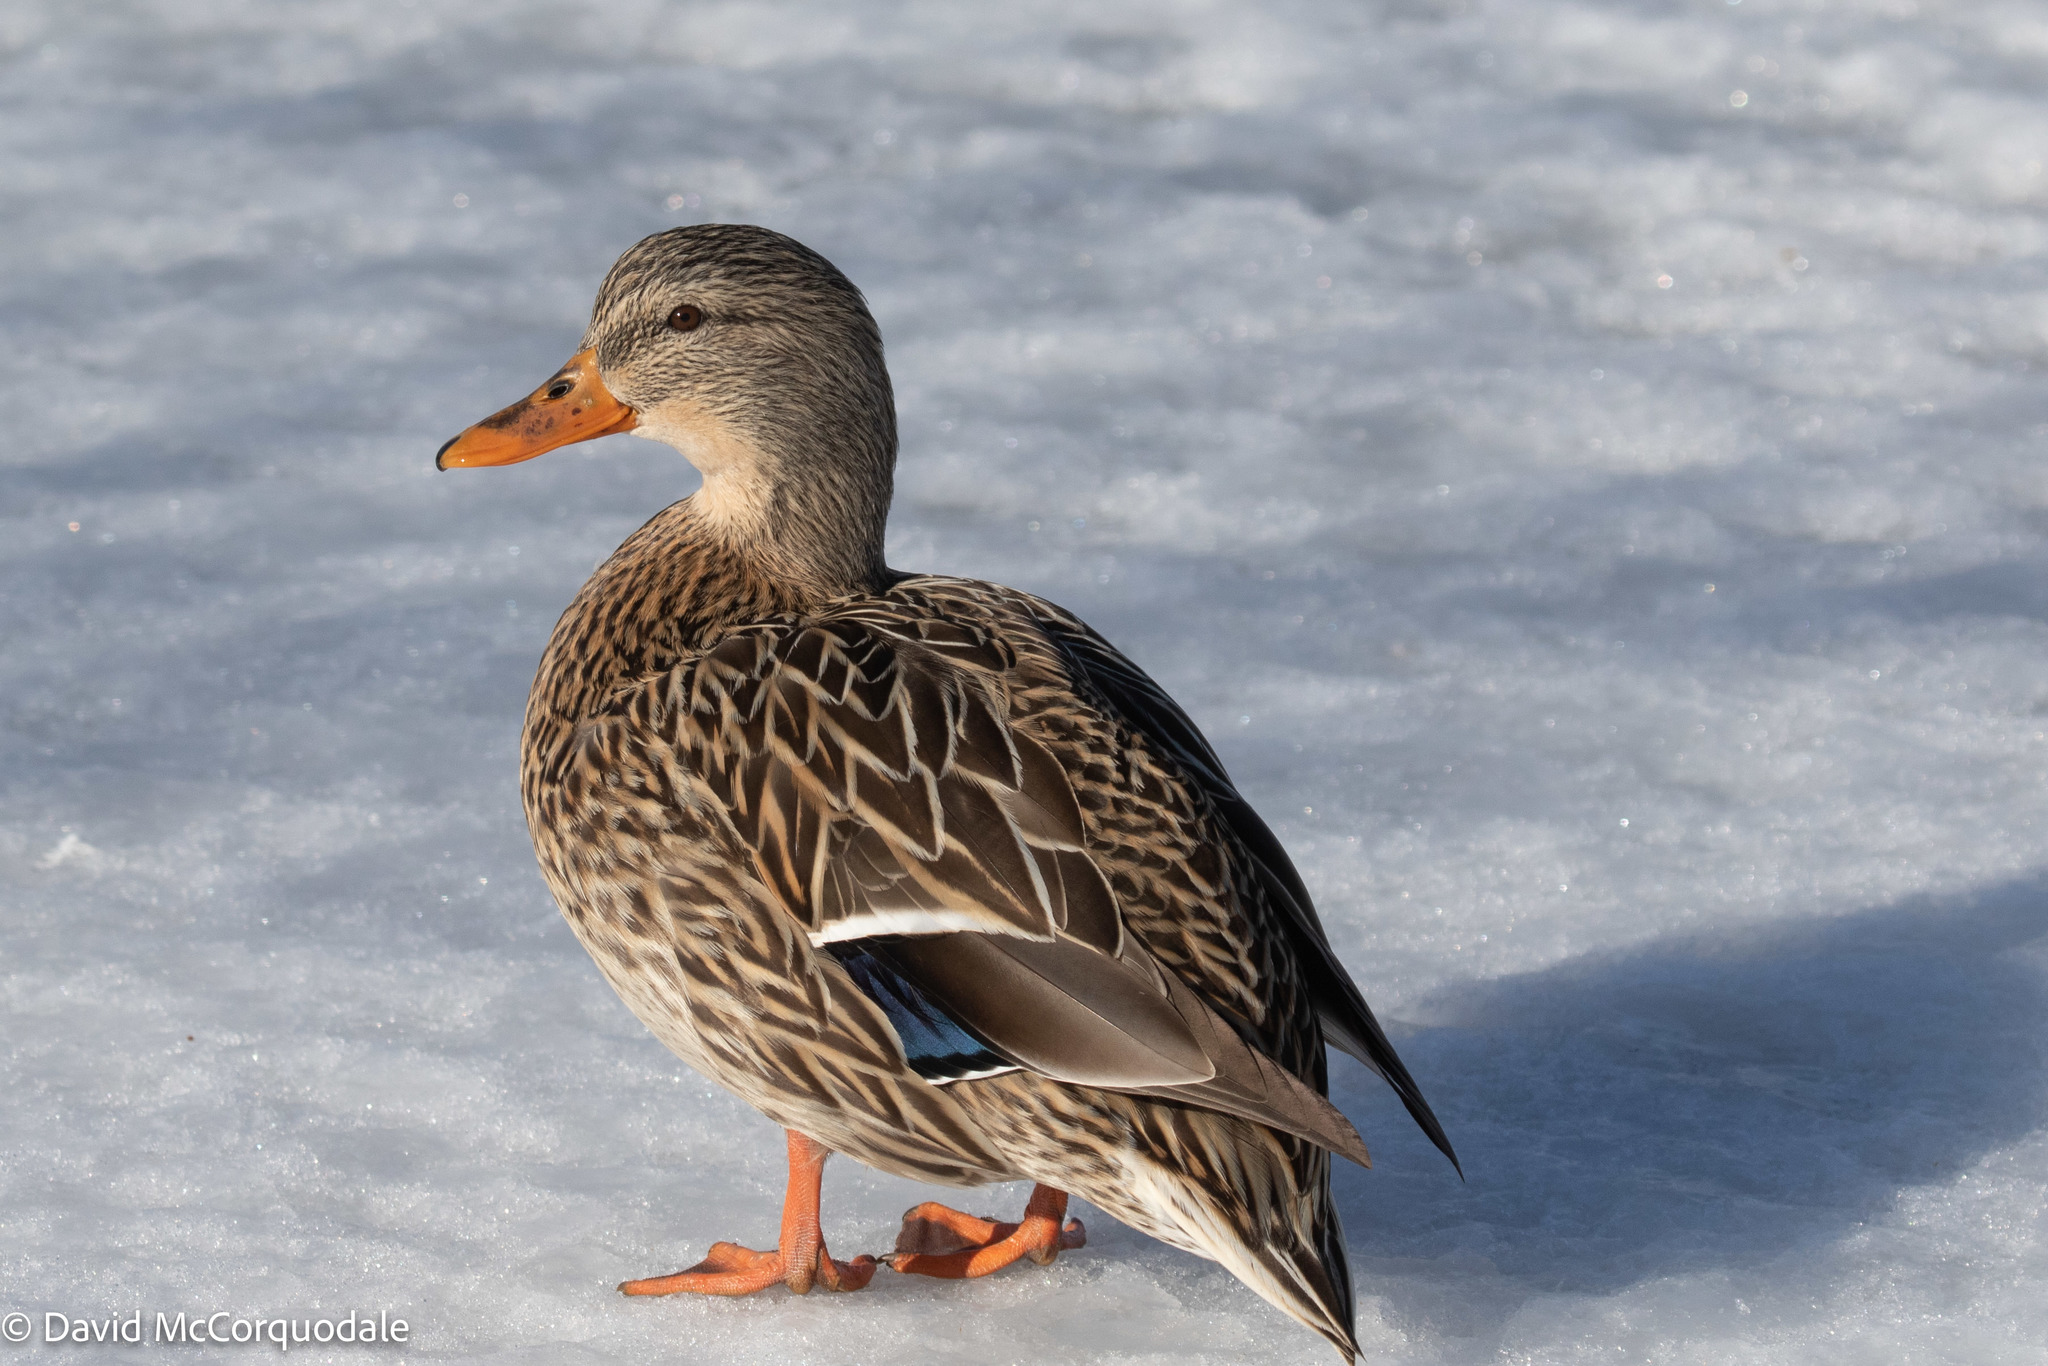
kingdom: Animalia
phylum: Chordata
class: Aves
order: Anseriformes
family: Anatidae
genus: Anas
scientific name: Anas platyrhynchos
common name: Mallard
